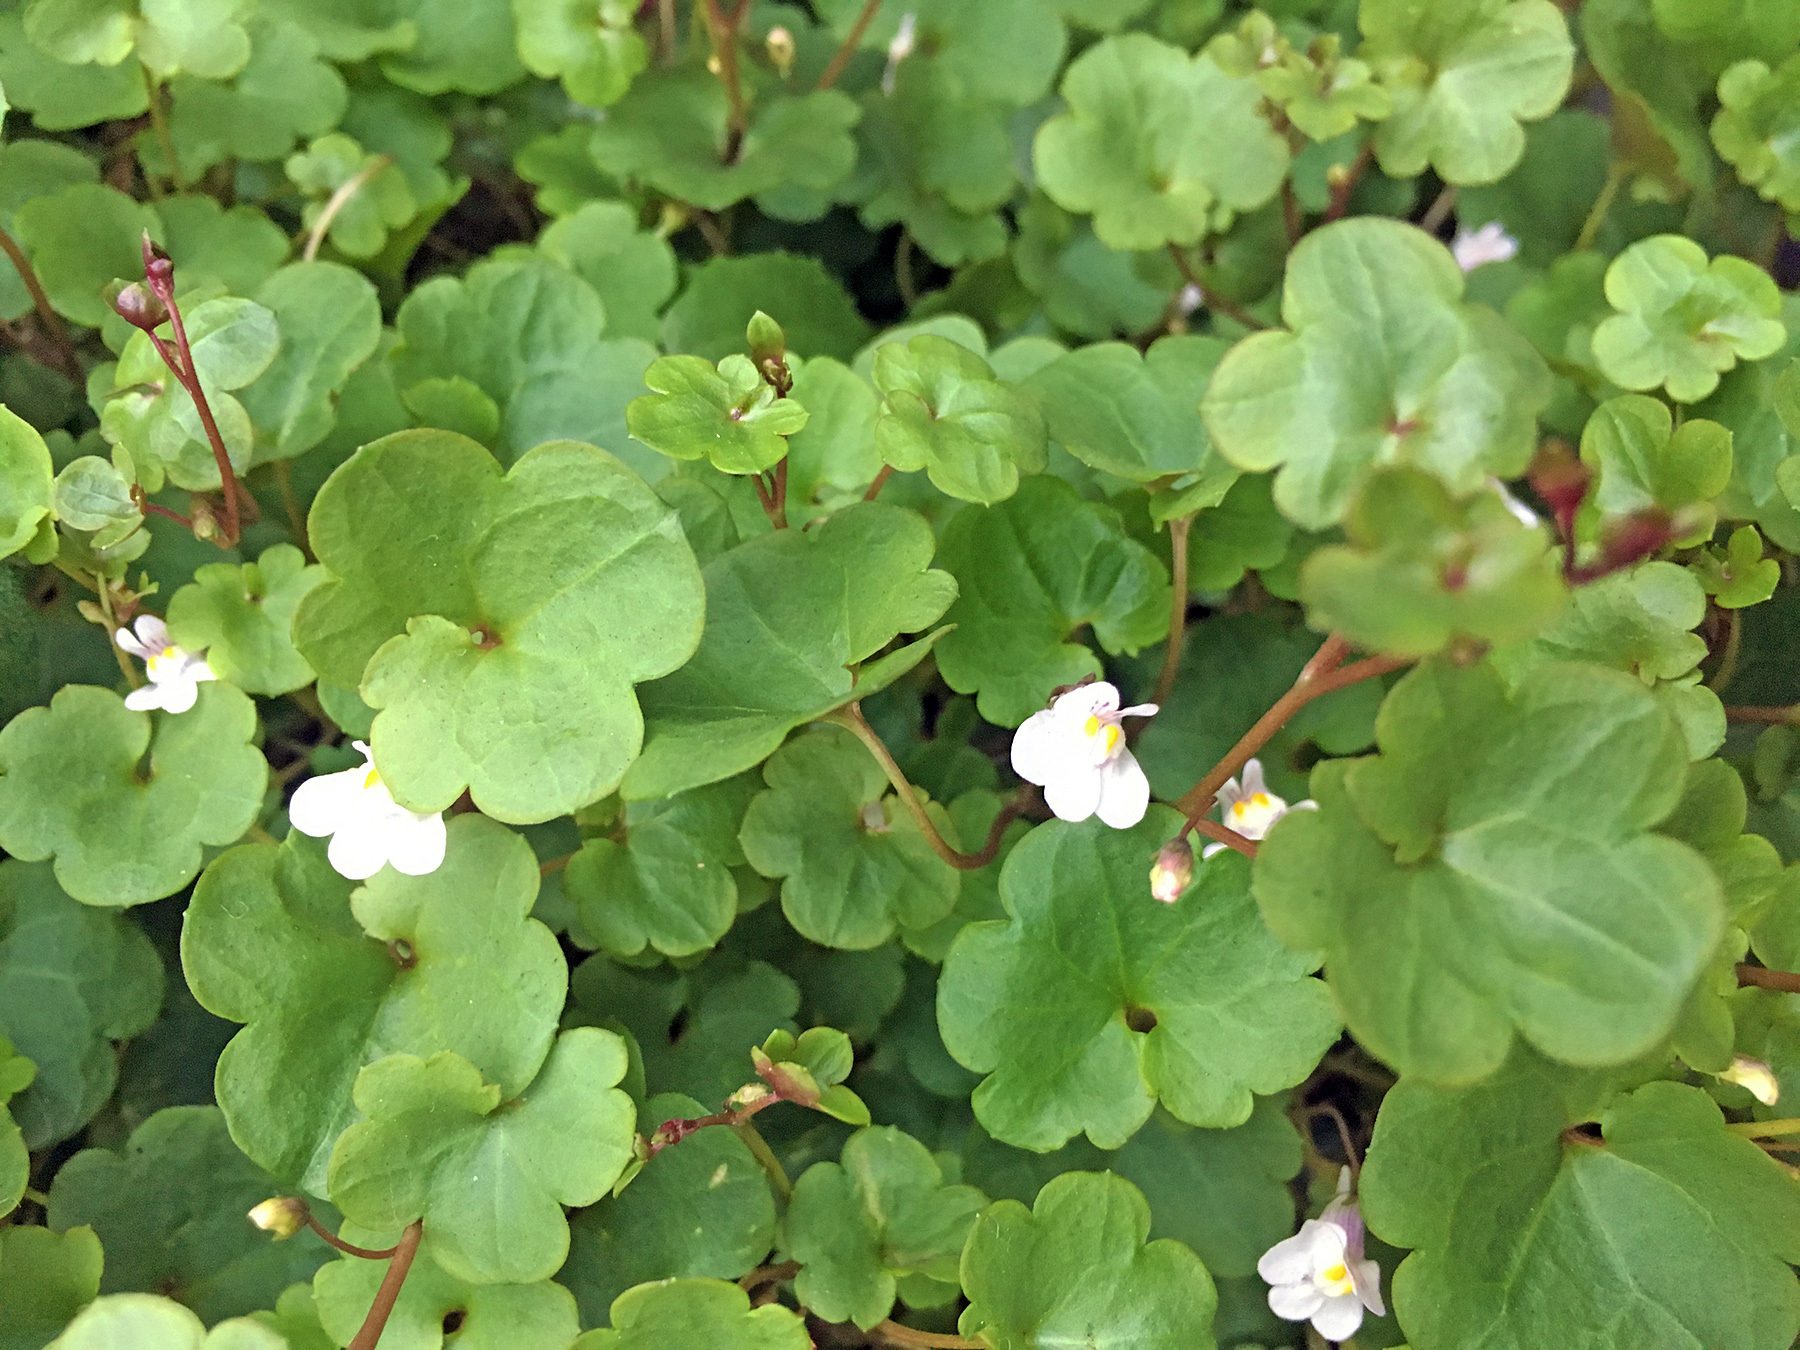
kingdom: Plantae
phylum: Tracheophyta
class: Magnoliopsida
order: Lamiales
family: Plantaginaceae
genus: Cymbalaria
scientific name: Cymbalaria muralis
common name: Ivy-leaved toadflax
